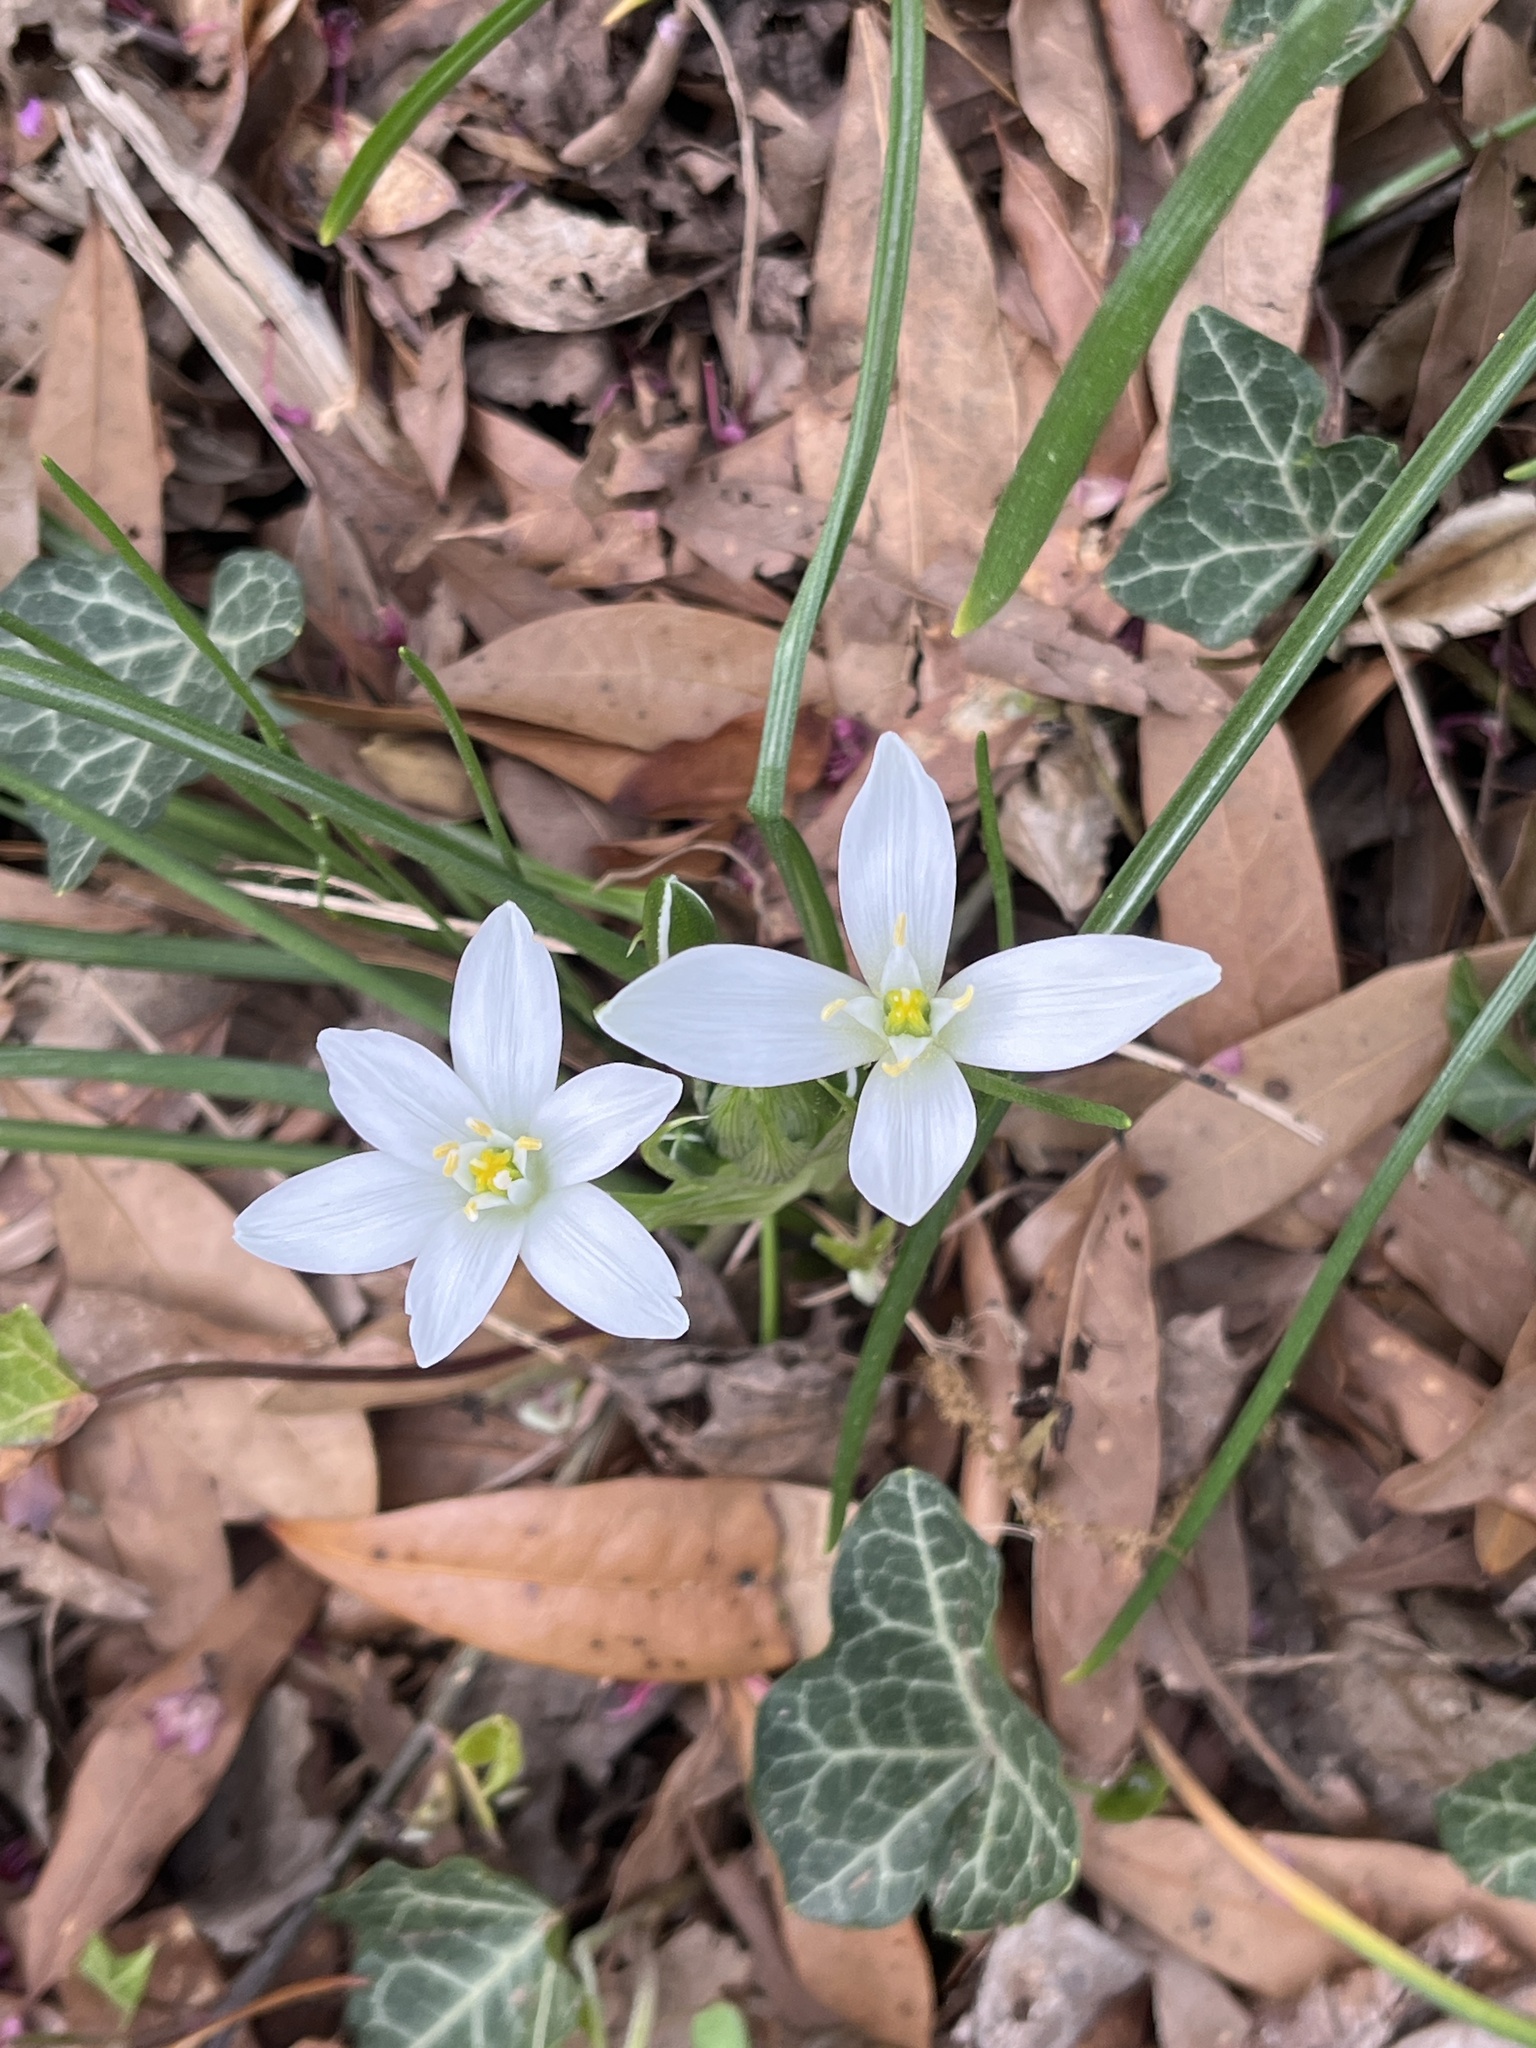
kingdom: Plantae
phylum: Tracheophyta
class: Liliopsida
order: Asparagales
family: Asparagaceae
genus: Ornithogalum
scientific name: Ornithogalum umbellatum
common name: Garden star-of-bethlehem
